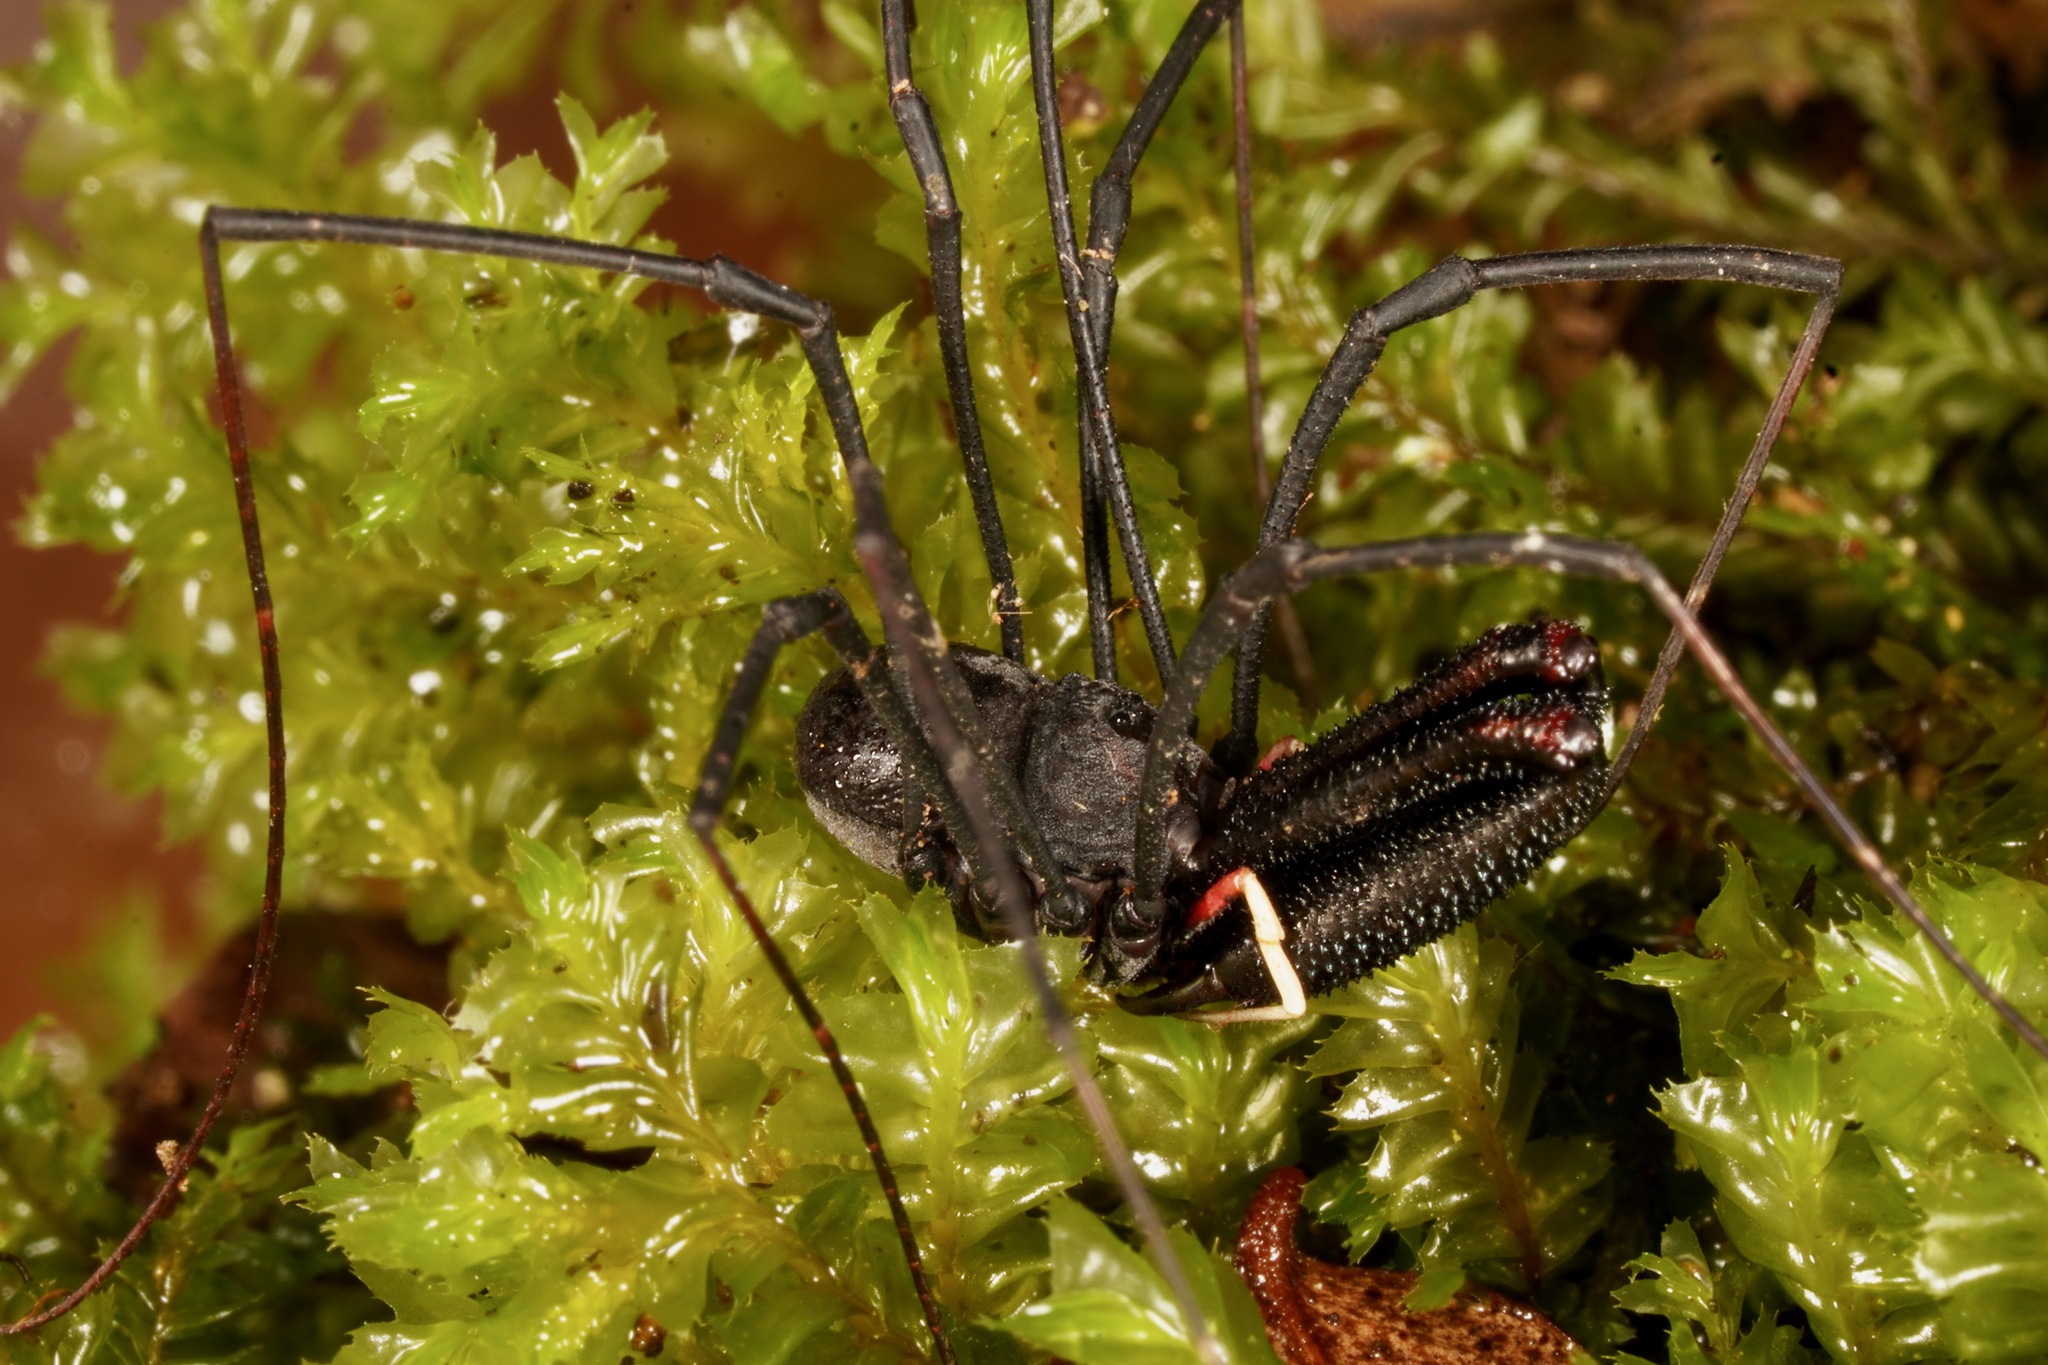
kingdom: Animalia
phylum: Arthropoda
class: Arachnida
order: Opiliones
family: Neopilionidae
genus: Forsteropsalis
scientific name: Forsteropsalis inconstans
